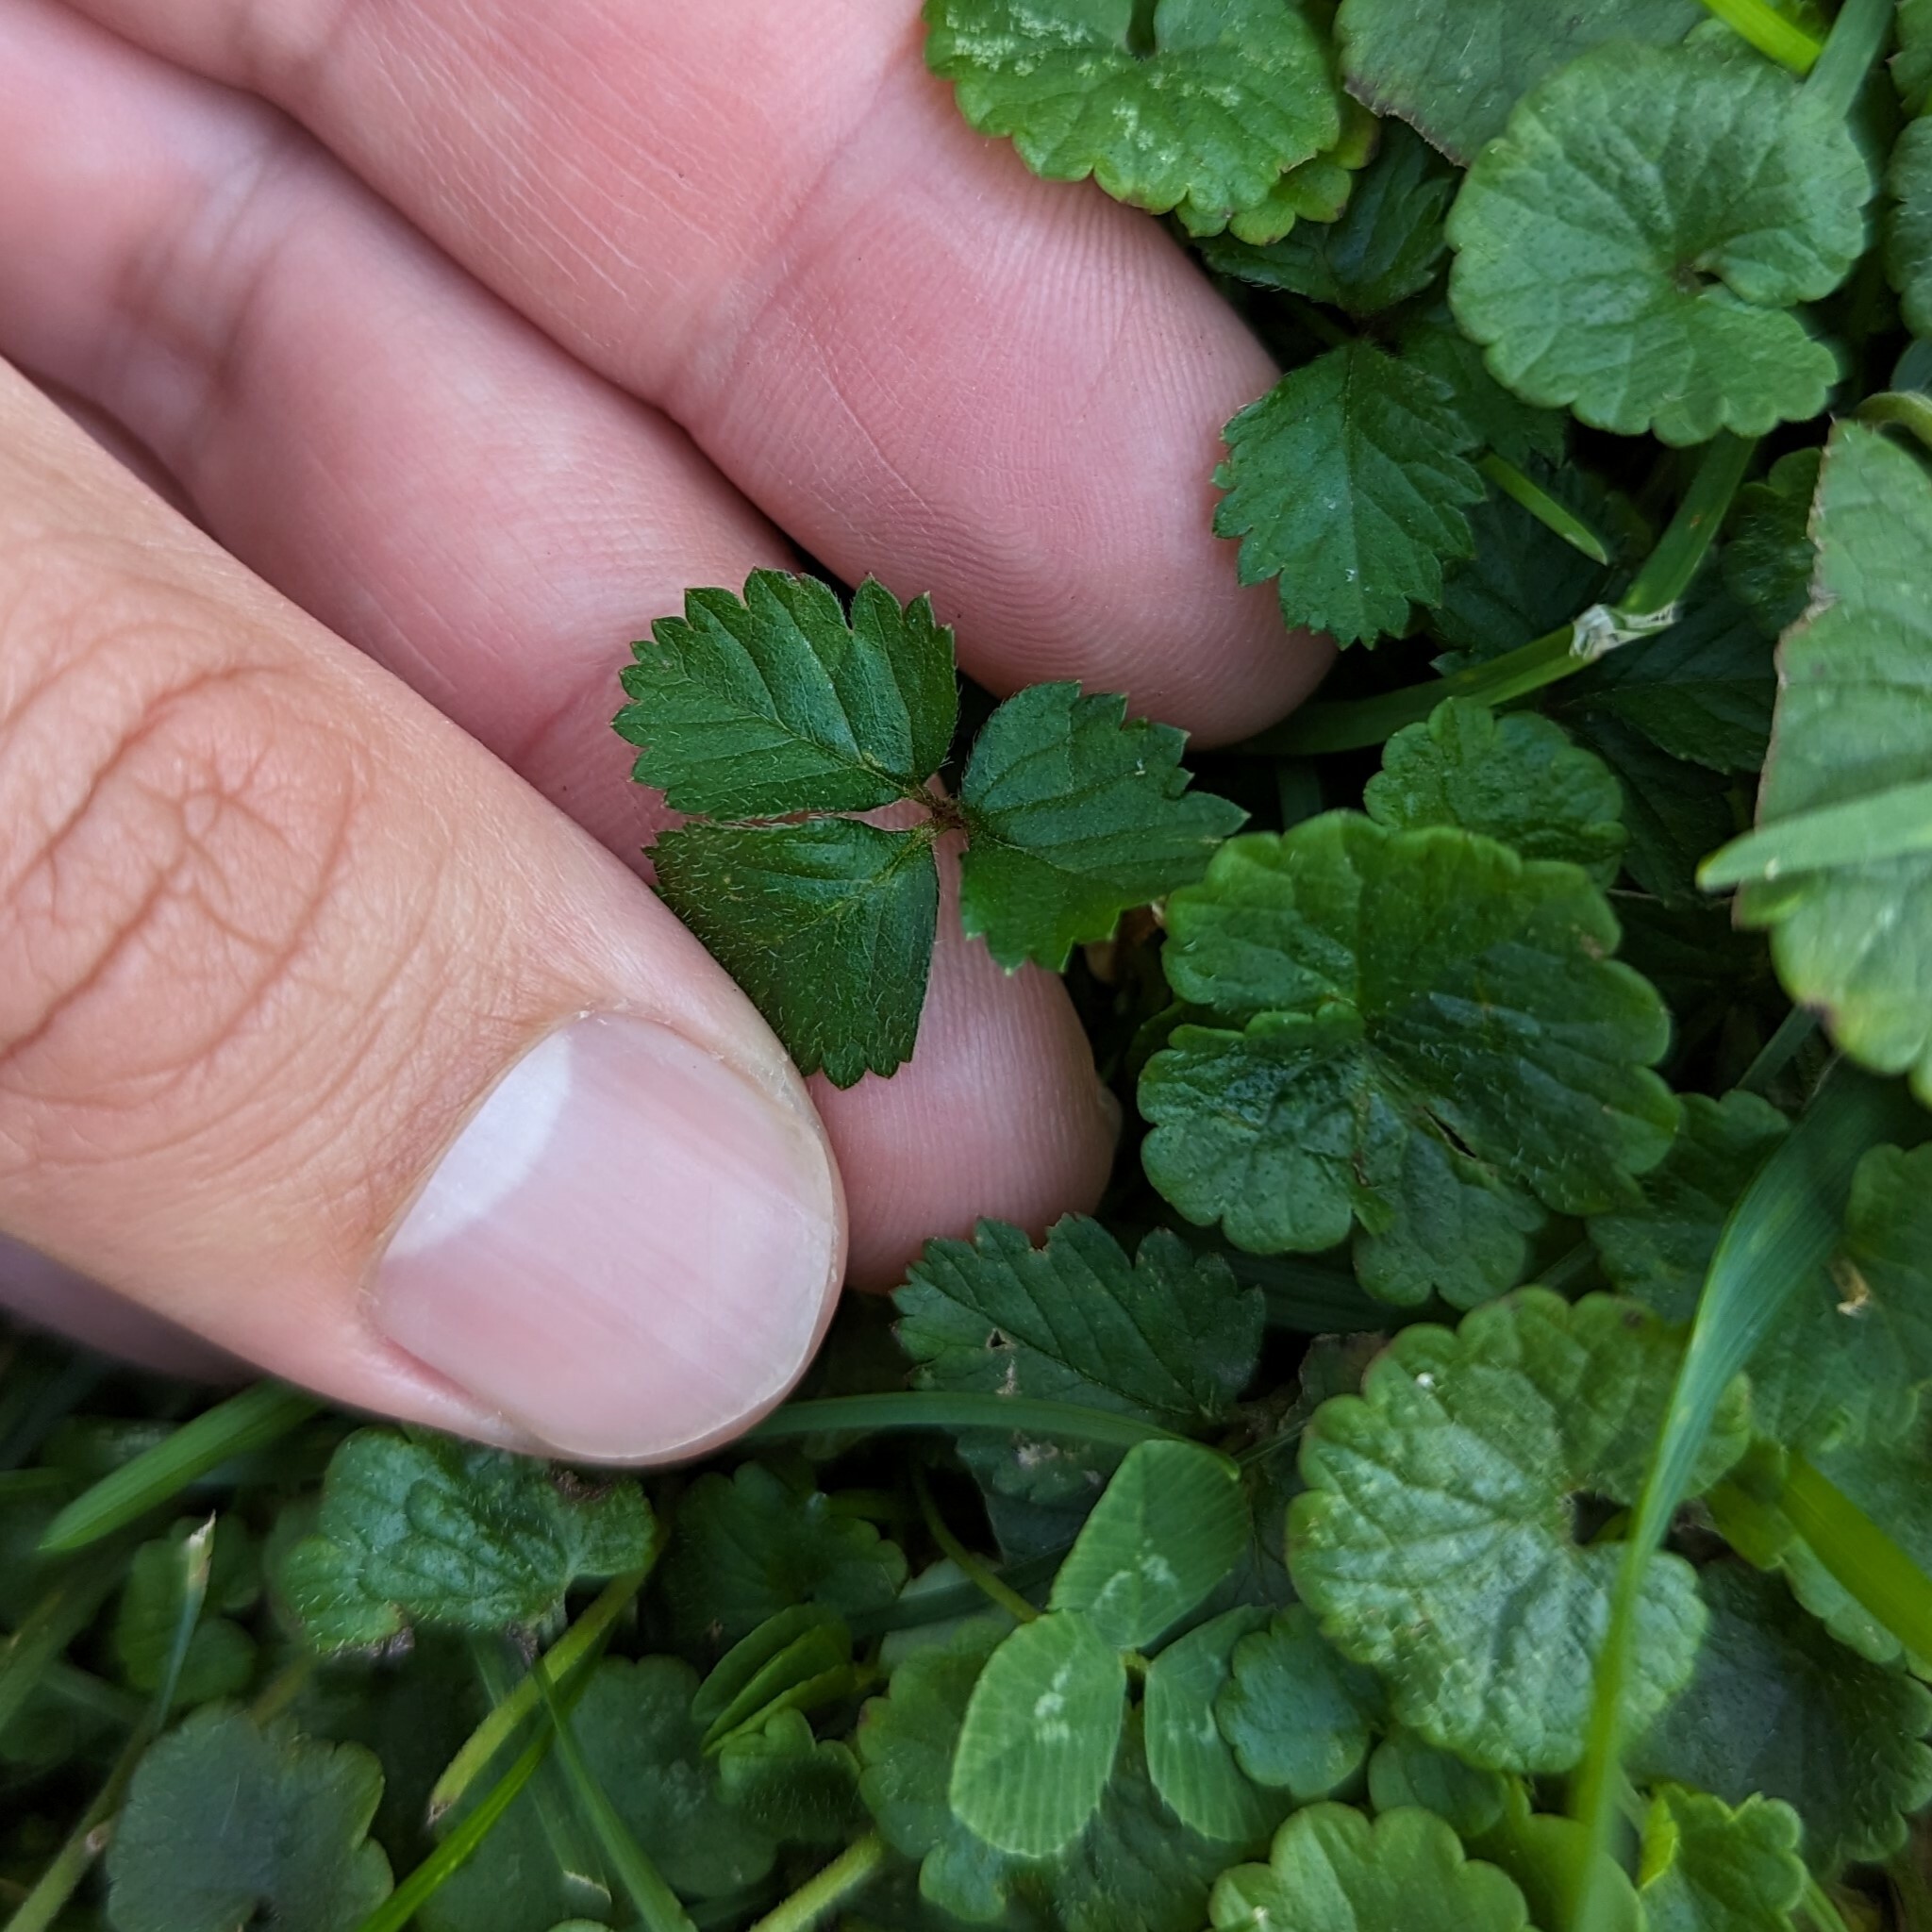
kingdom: Plantae
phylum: Tracheophyta
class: Magnoliopsida
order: Rosales
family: Rosaceae
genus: Potentilla
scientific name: Potentilla indica
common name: Yellow-flowered strawberry
